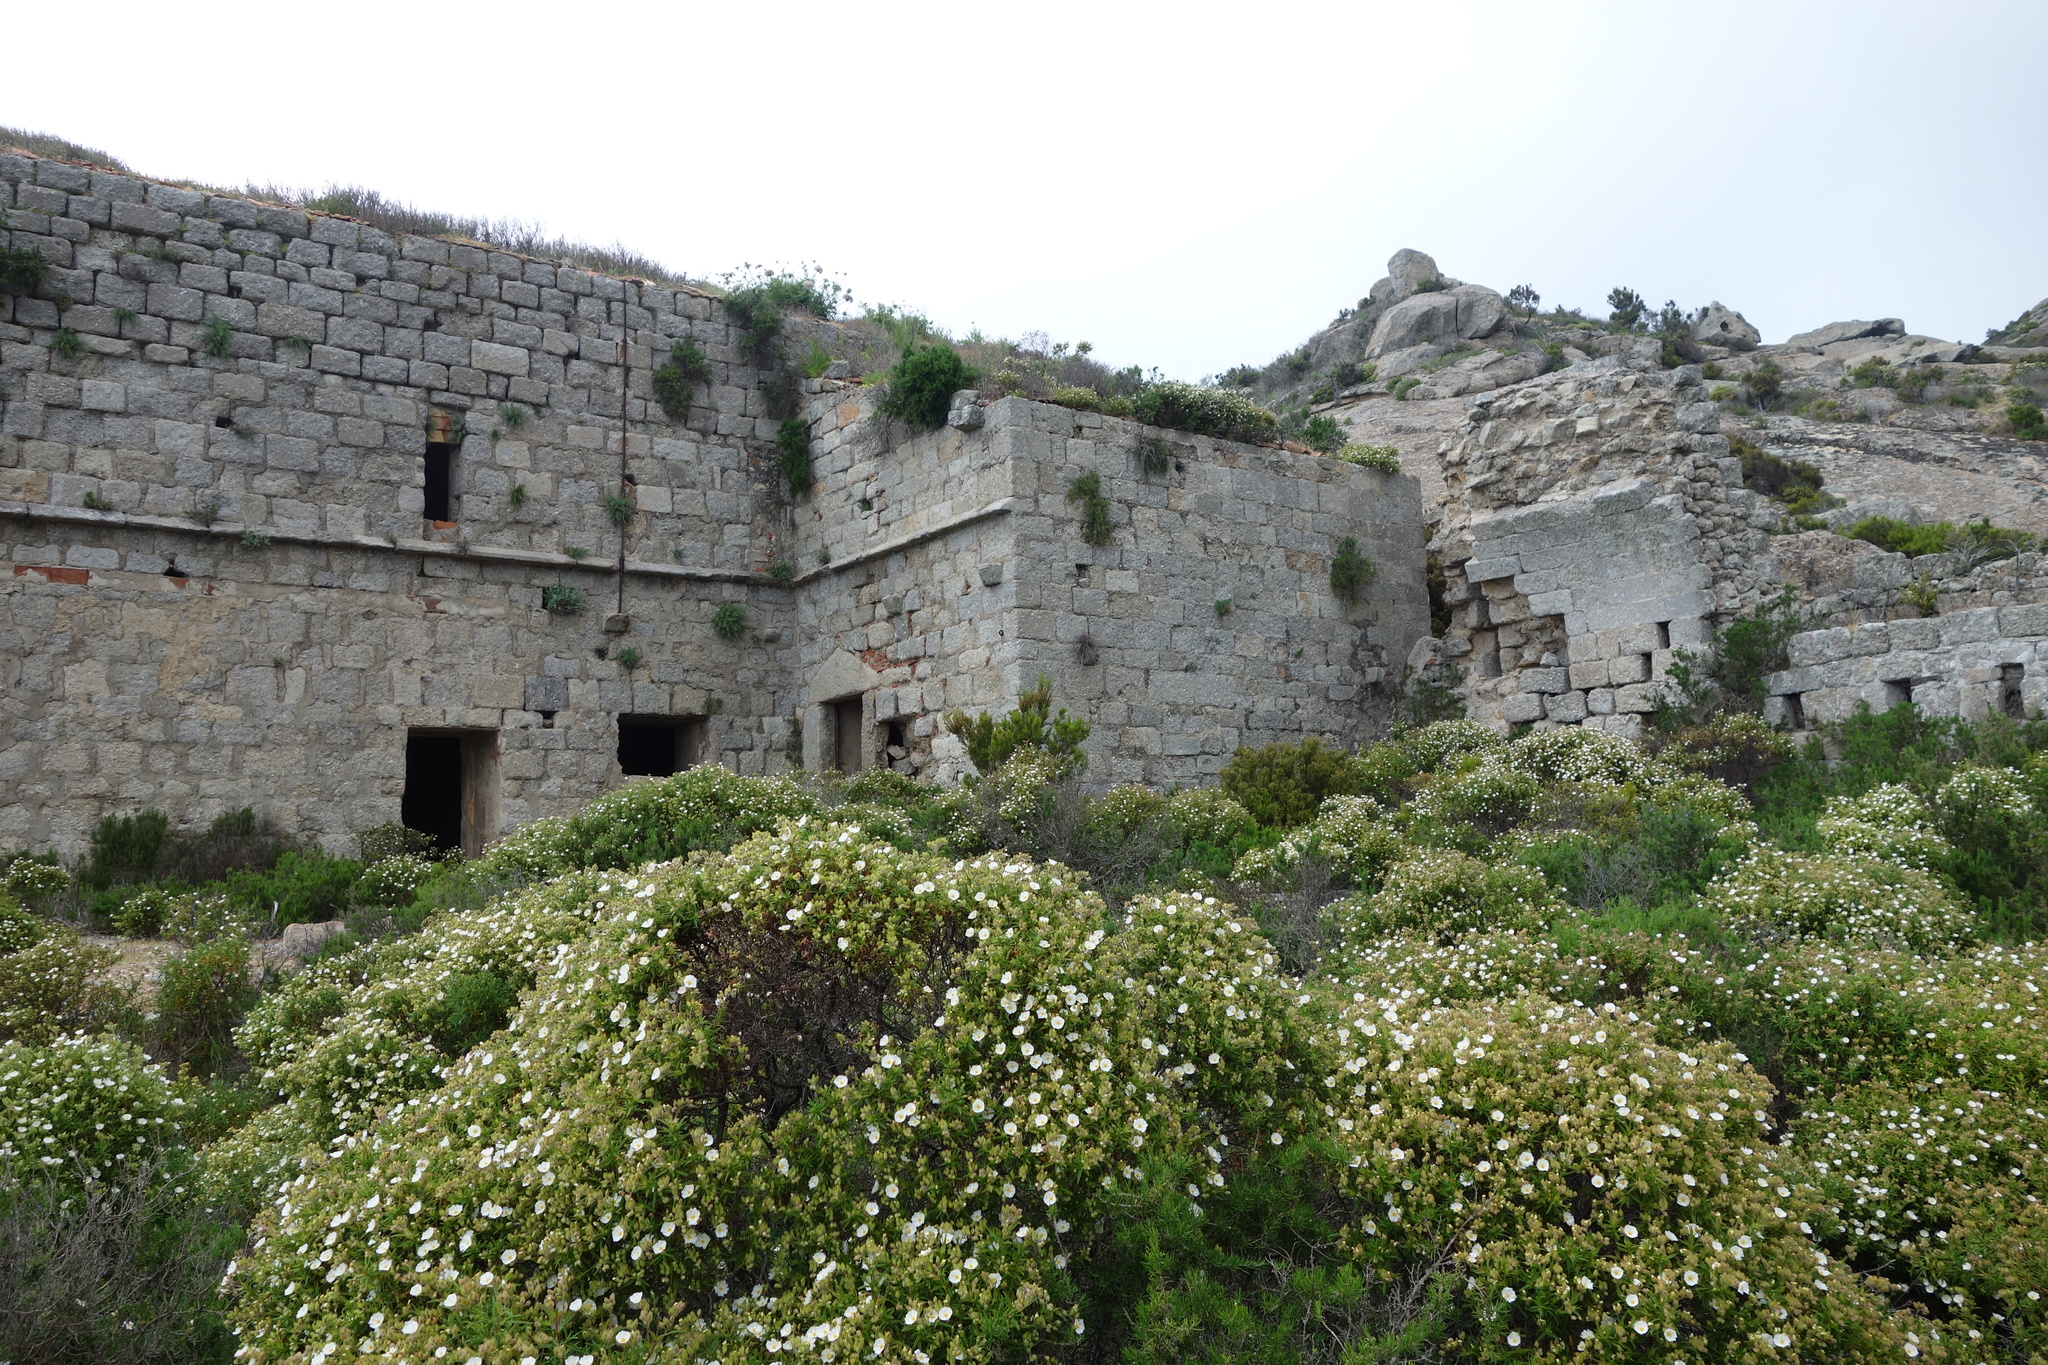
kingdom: Plantae
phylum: Tracheophyta
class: Magnoliopsida
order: Malvales
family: Cistaceae
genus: Cistus
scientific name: Cistus monspeliensis
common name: Montpelier cistus
